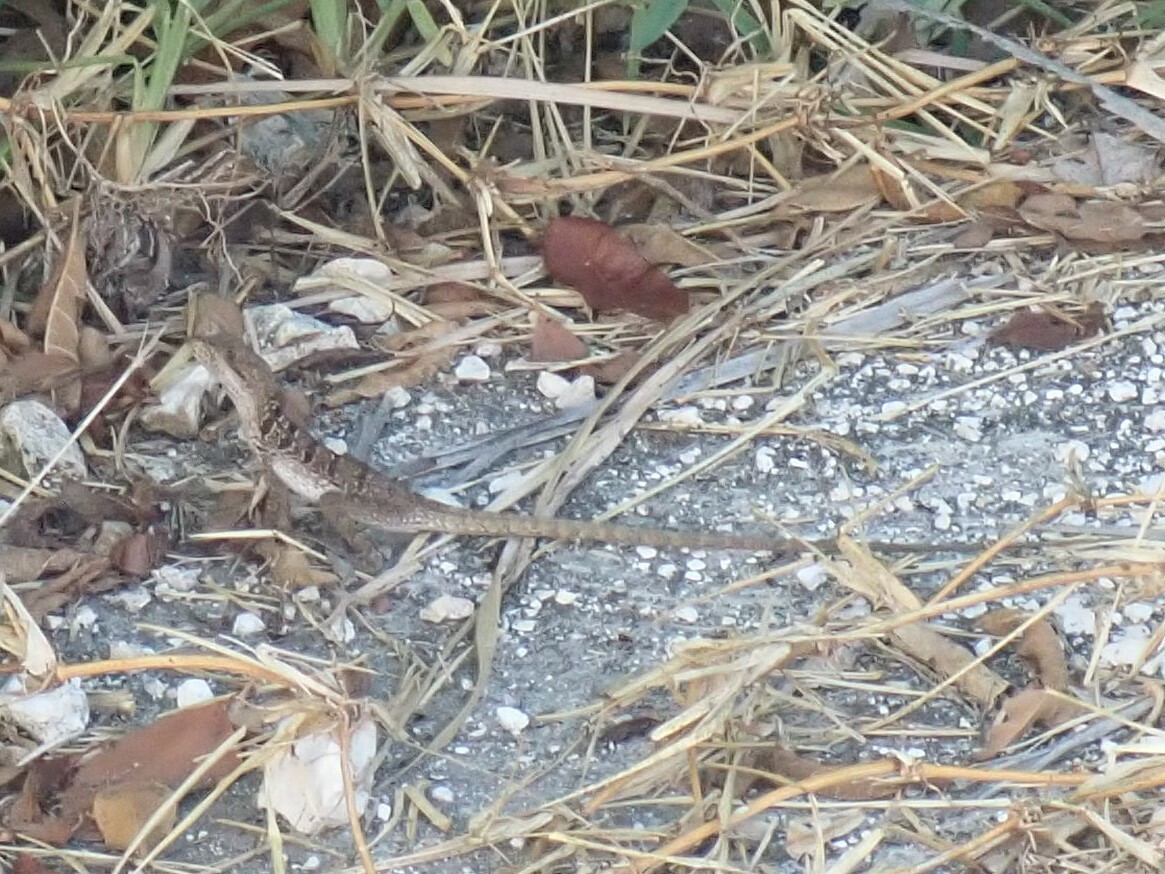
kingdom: Animalia
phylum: Chordata
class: Squamata
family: Corytophanidae
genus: Basiliscus
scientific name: Basiliscus vittatus
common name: Brown basilisk
